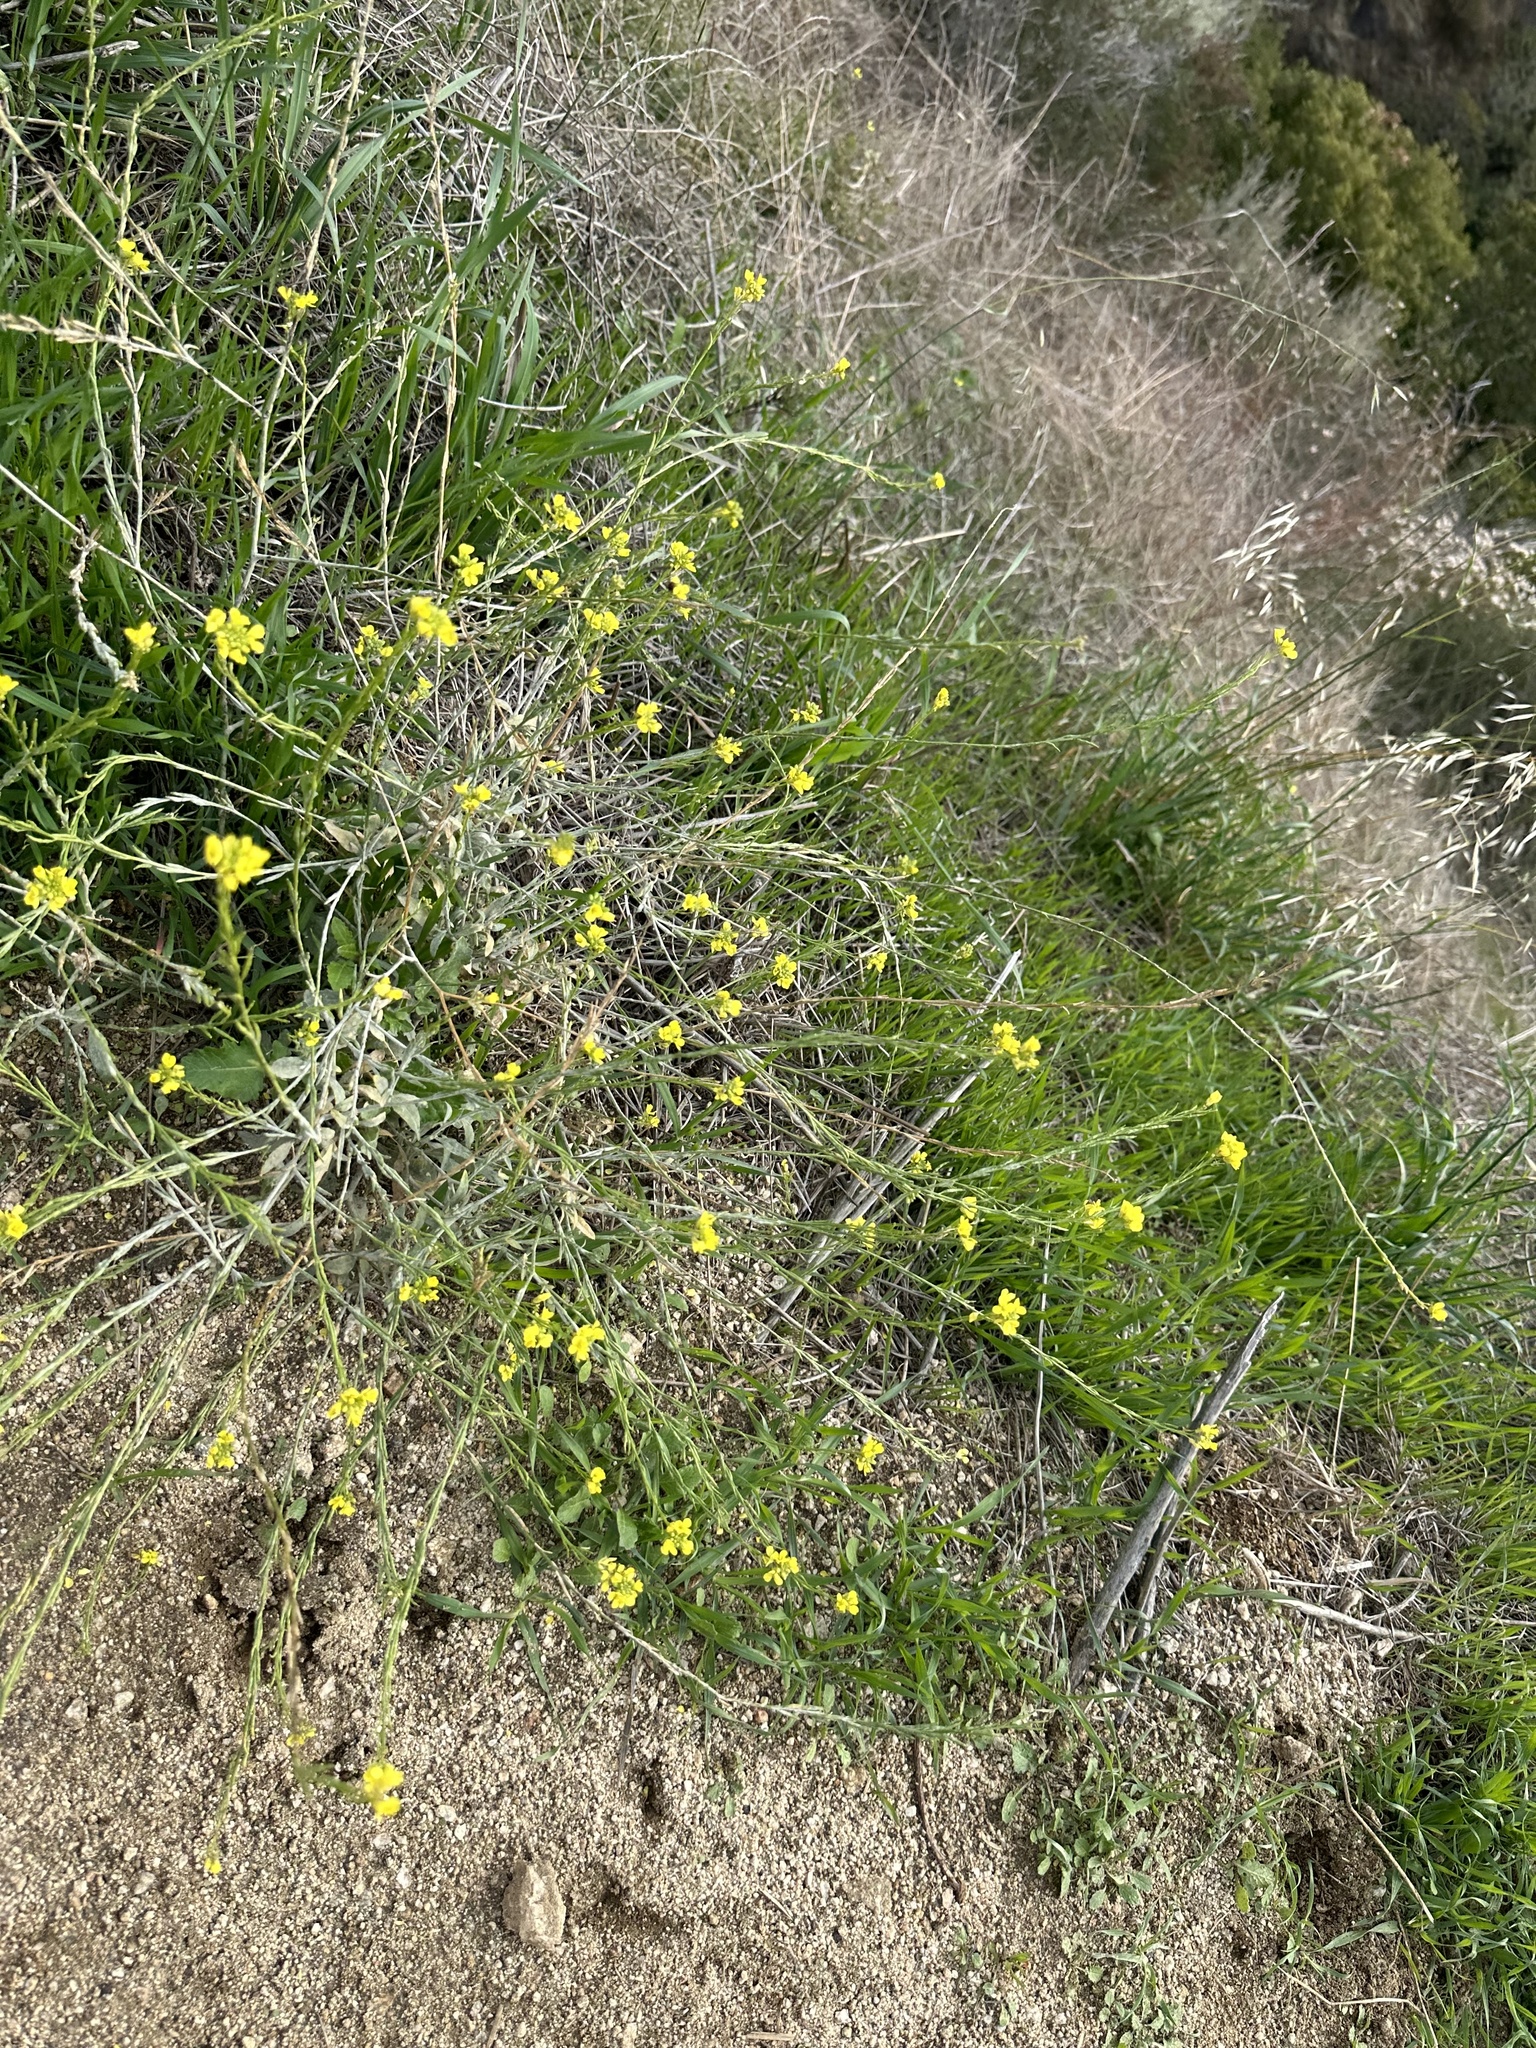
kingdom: Plantae
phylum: Tracheophyta
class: Magnoliopsida
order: Brassicales
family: Brassicaceae
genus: Hirschfeldia
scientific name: Hirschfeldia incana
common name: Hoary mustard
